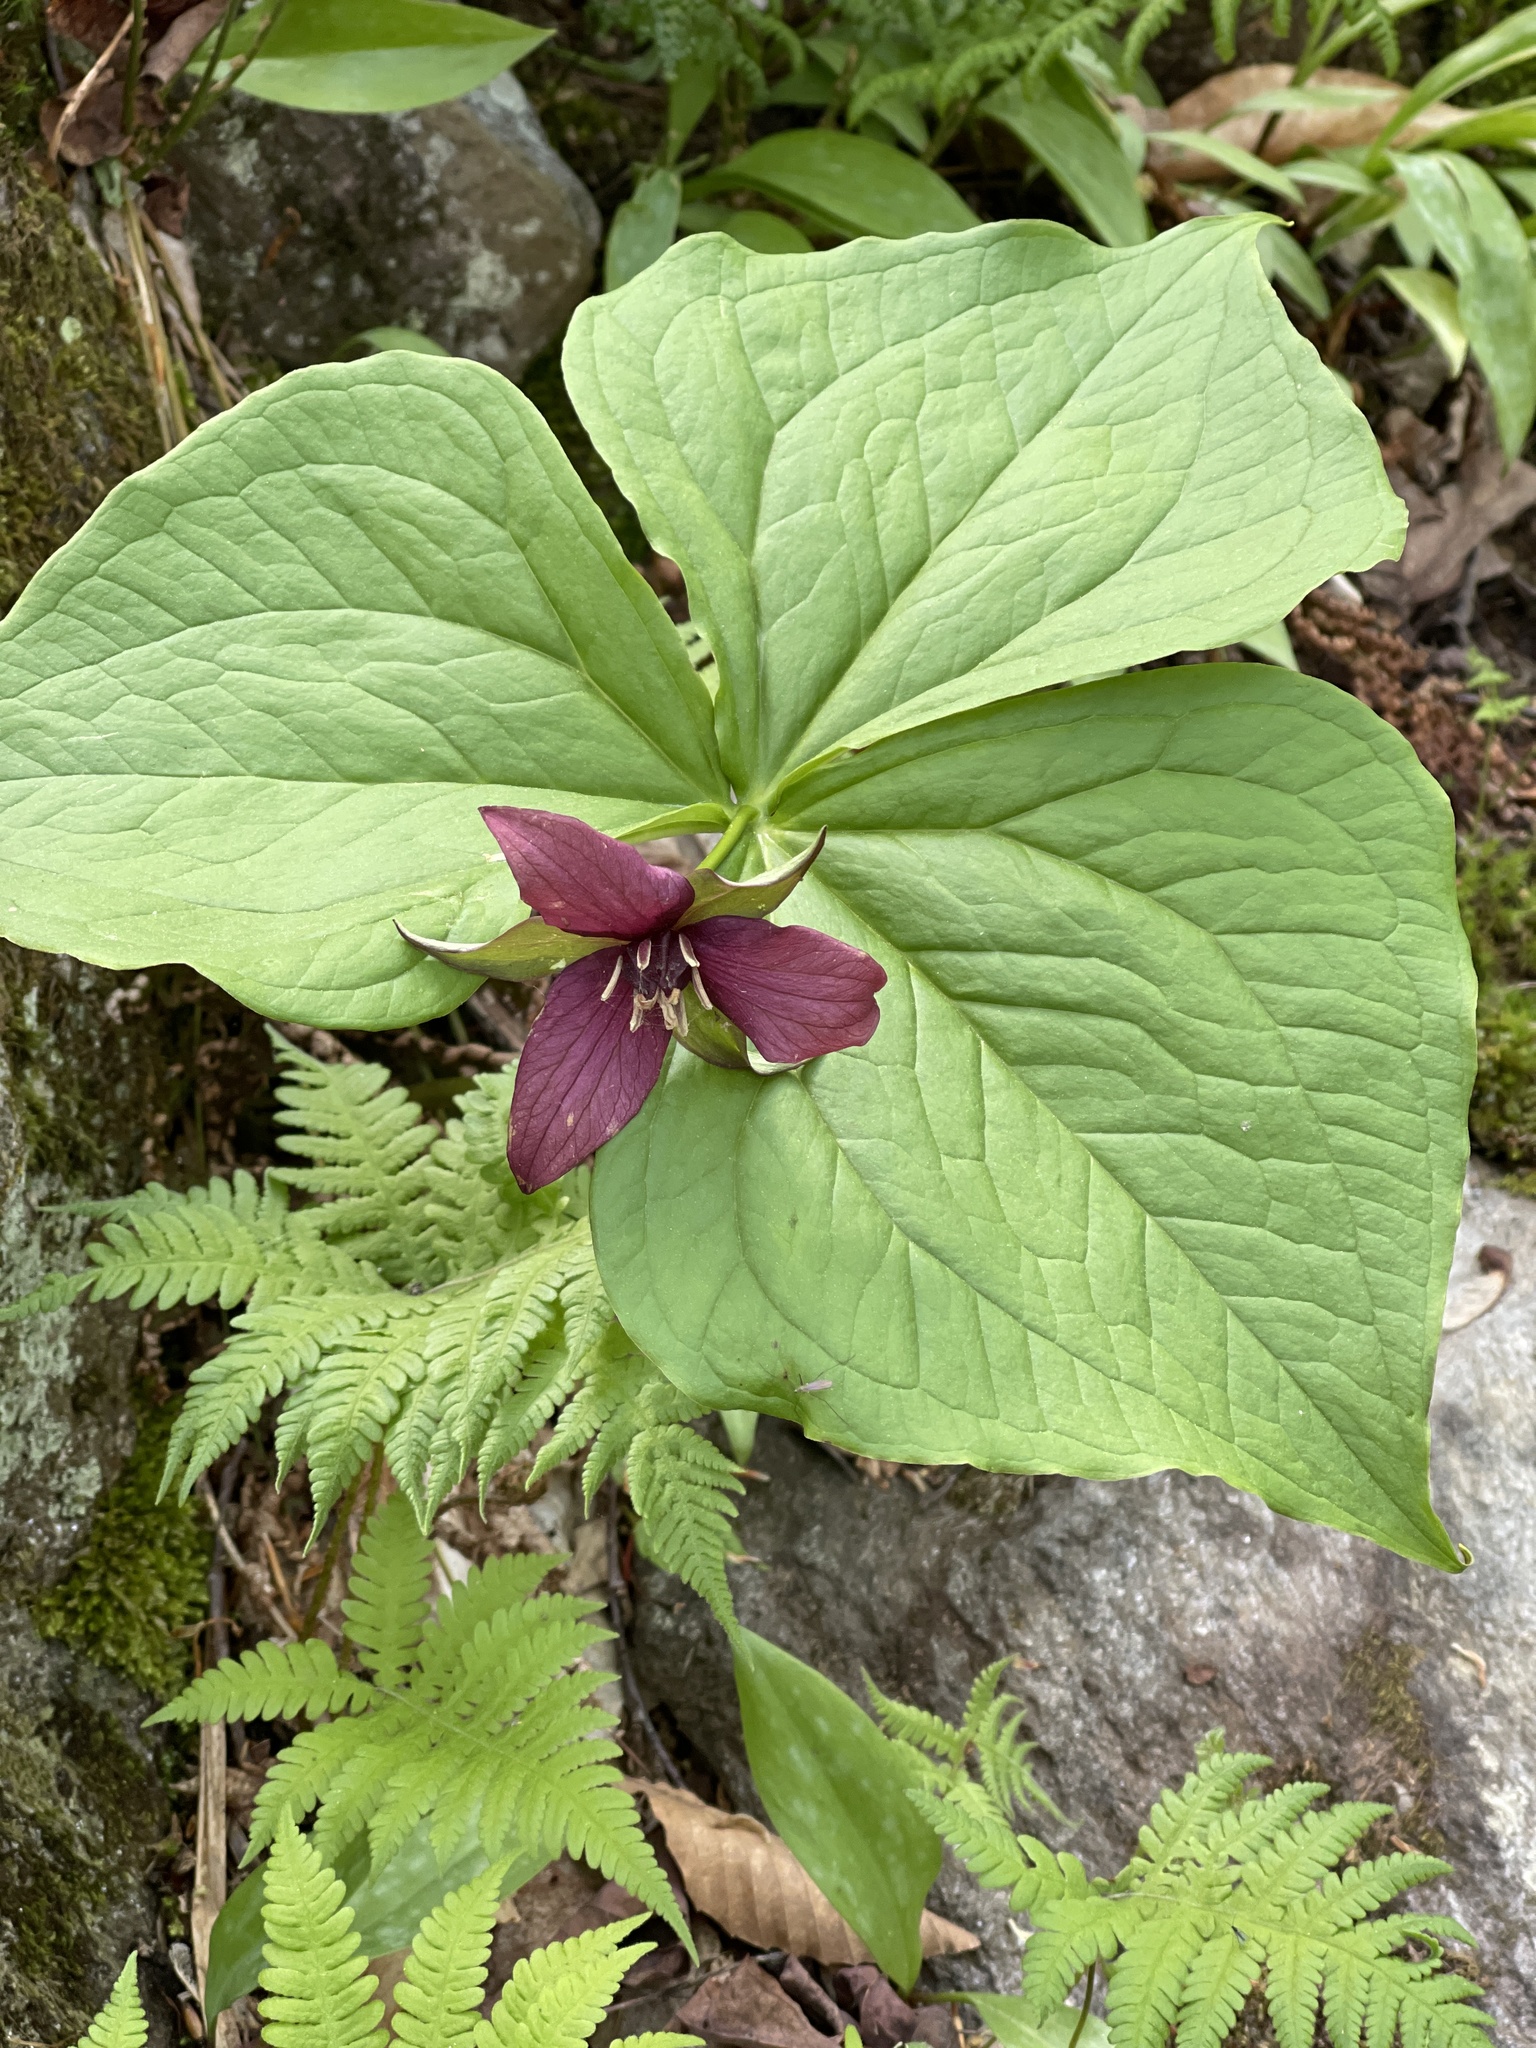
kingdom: Plantae
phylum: Tracheophyta
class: Liliopsida
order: Liliales
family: Melanthiaceae
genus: Trillium
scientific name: Trillium erectum
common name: Purple trillium
